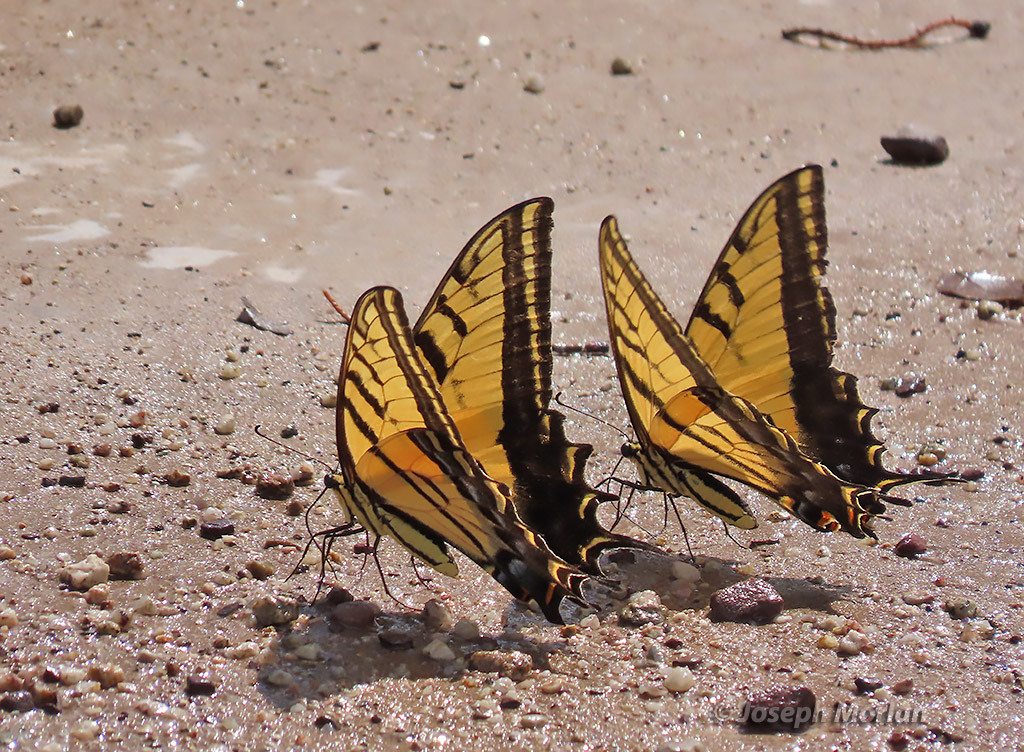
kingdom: Animalia
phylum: Arthropoda
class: Insecta
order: Lepidoptera
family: Papilionidae
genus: Papilio
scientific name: Papilio multicaudata
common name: Two-tailed tiger swallowtail
